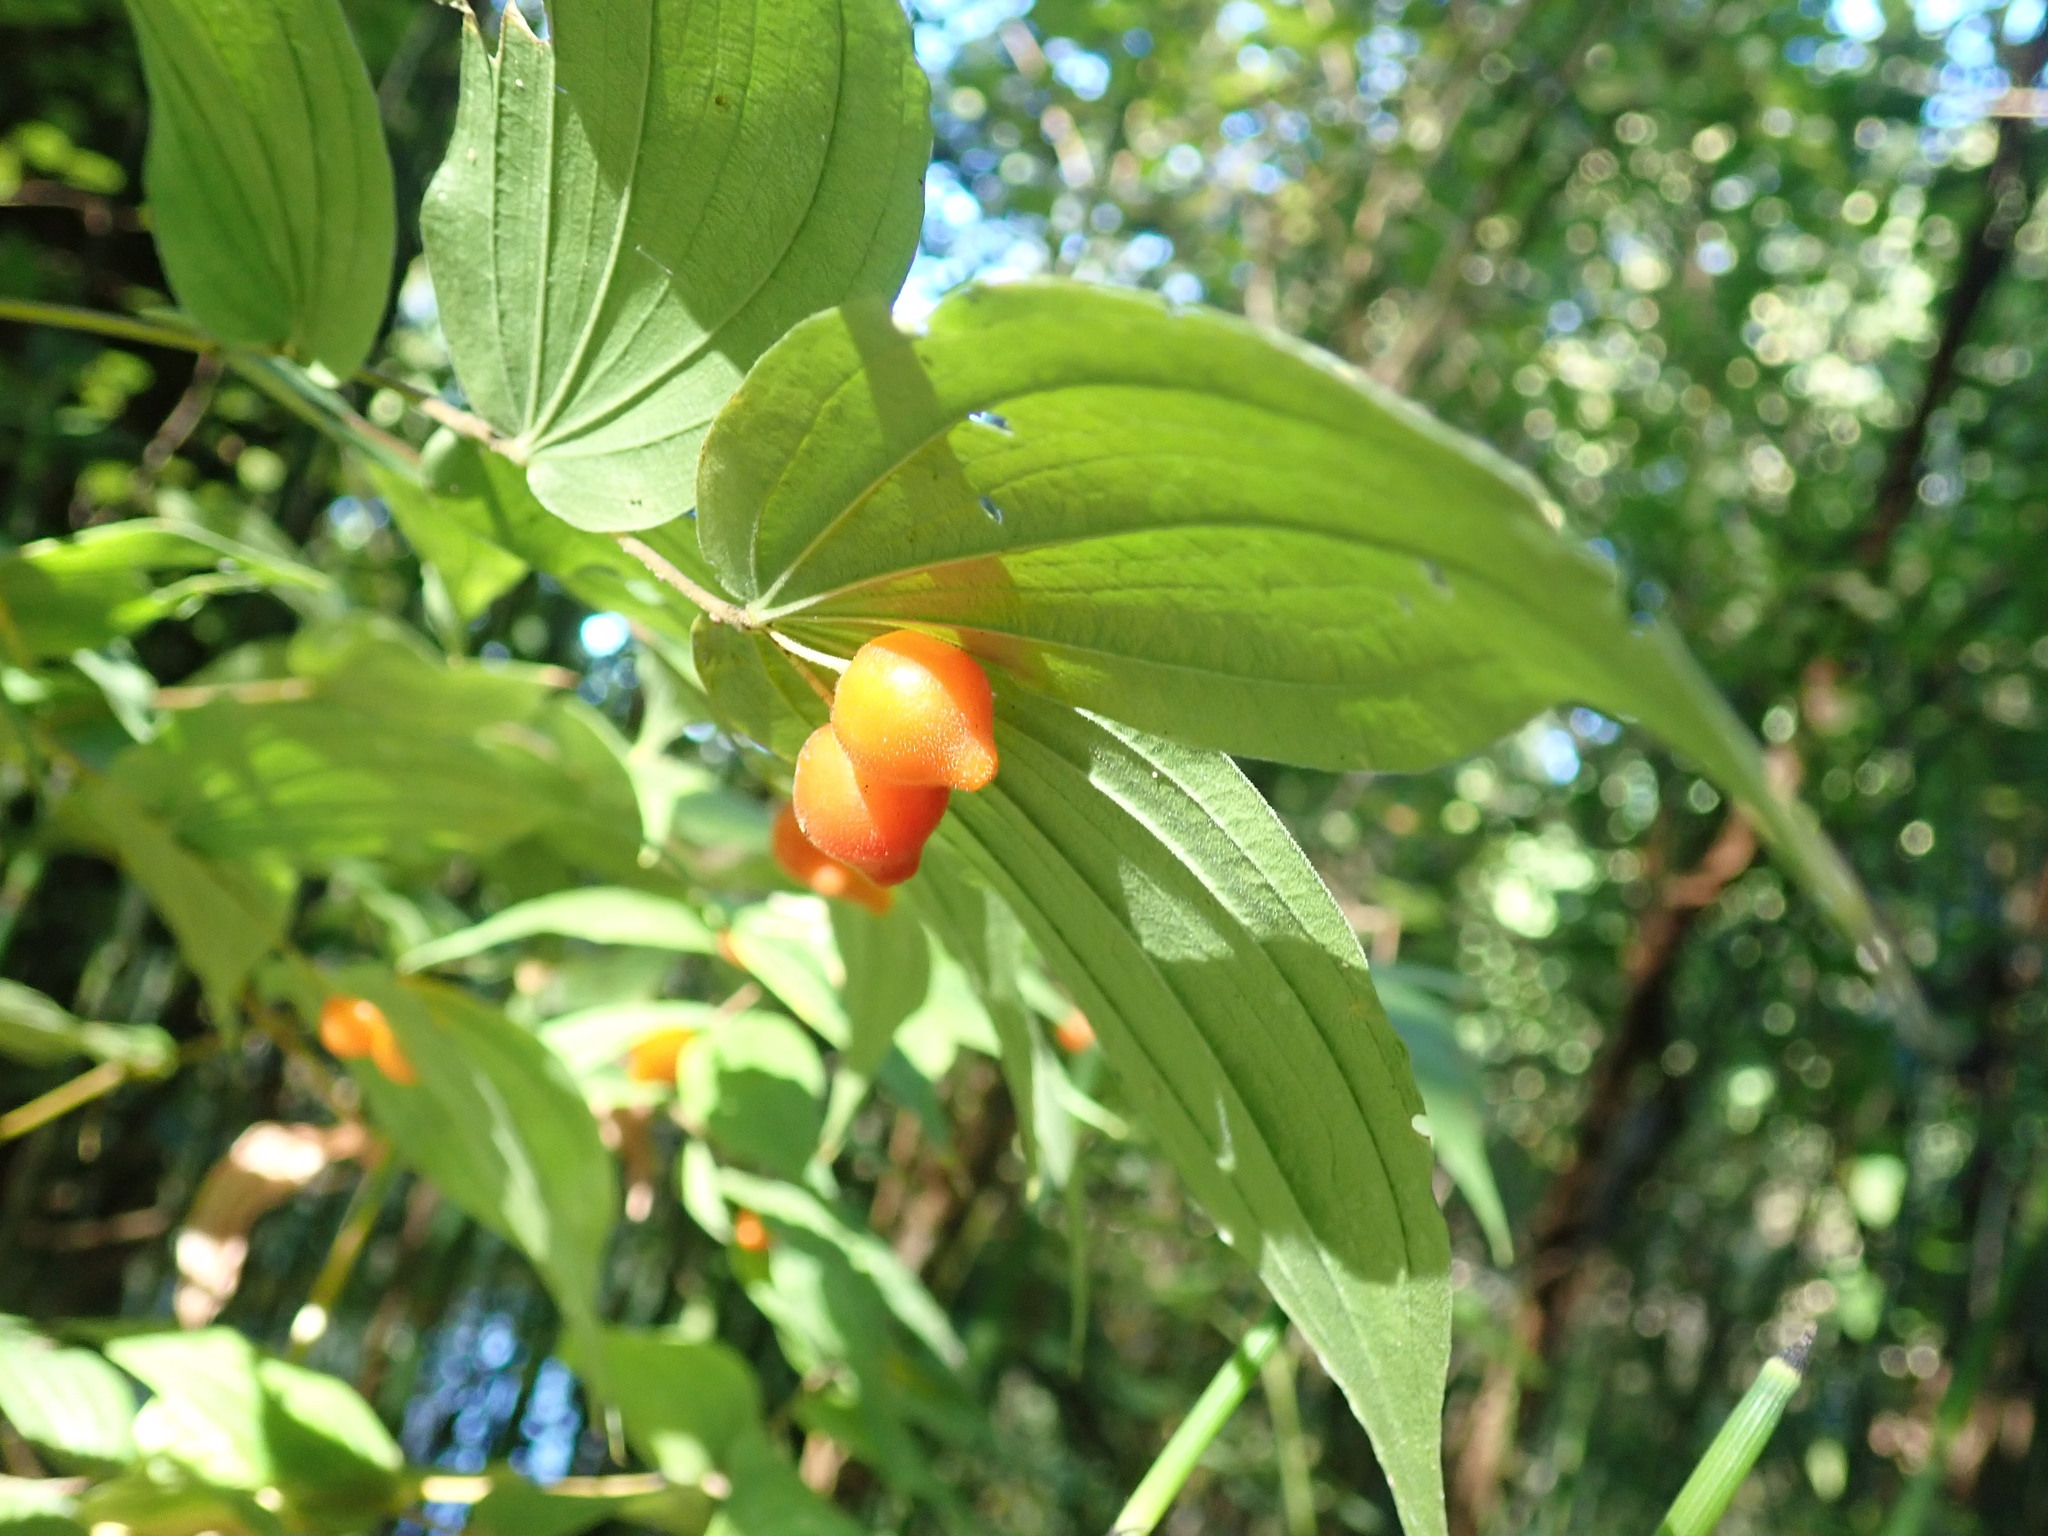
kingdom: Plantae
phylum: Tracheophyta
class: Liliopsida
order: Liliales
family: Liliaceae
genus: Prosartes
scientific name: Prosartes hookeri
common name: Fairy-bells
